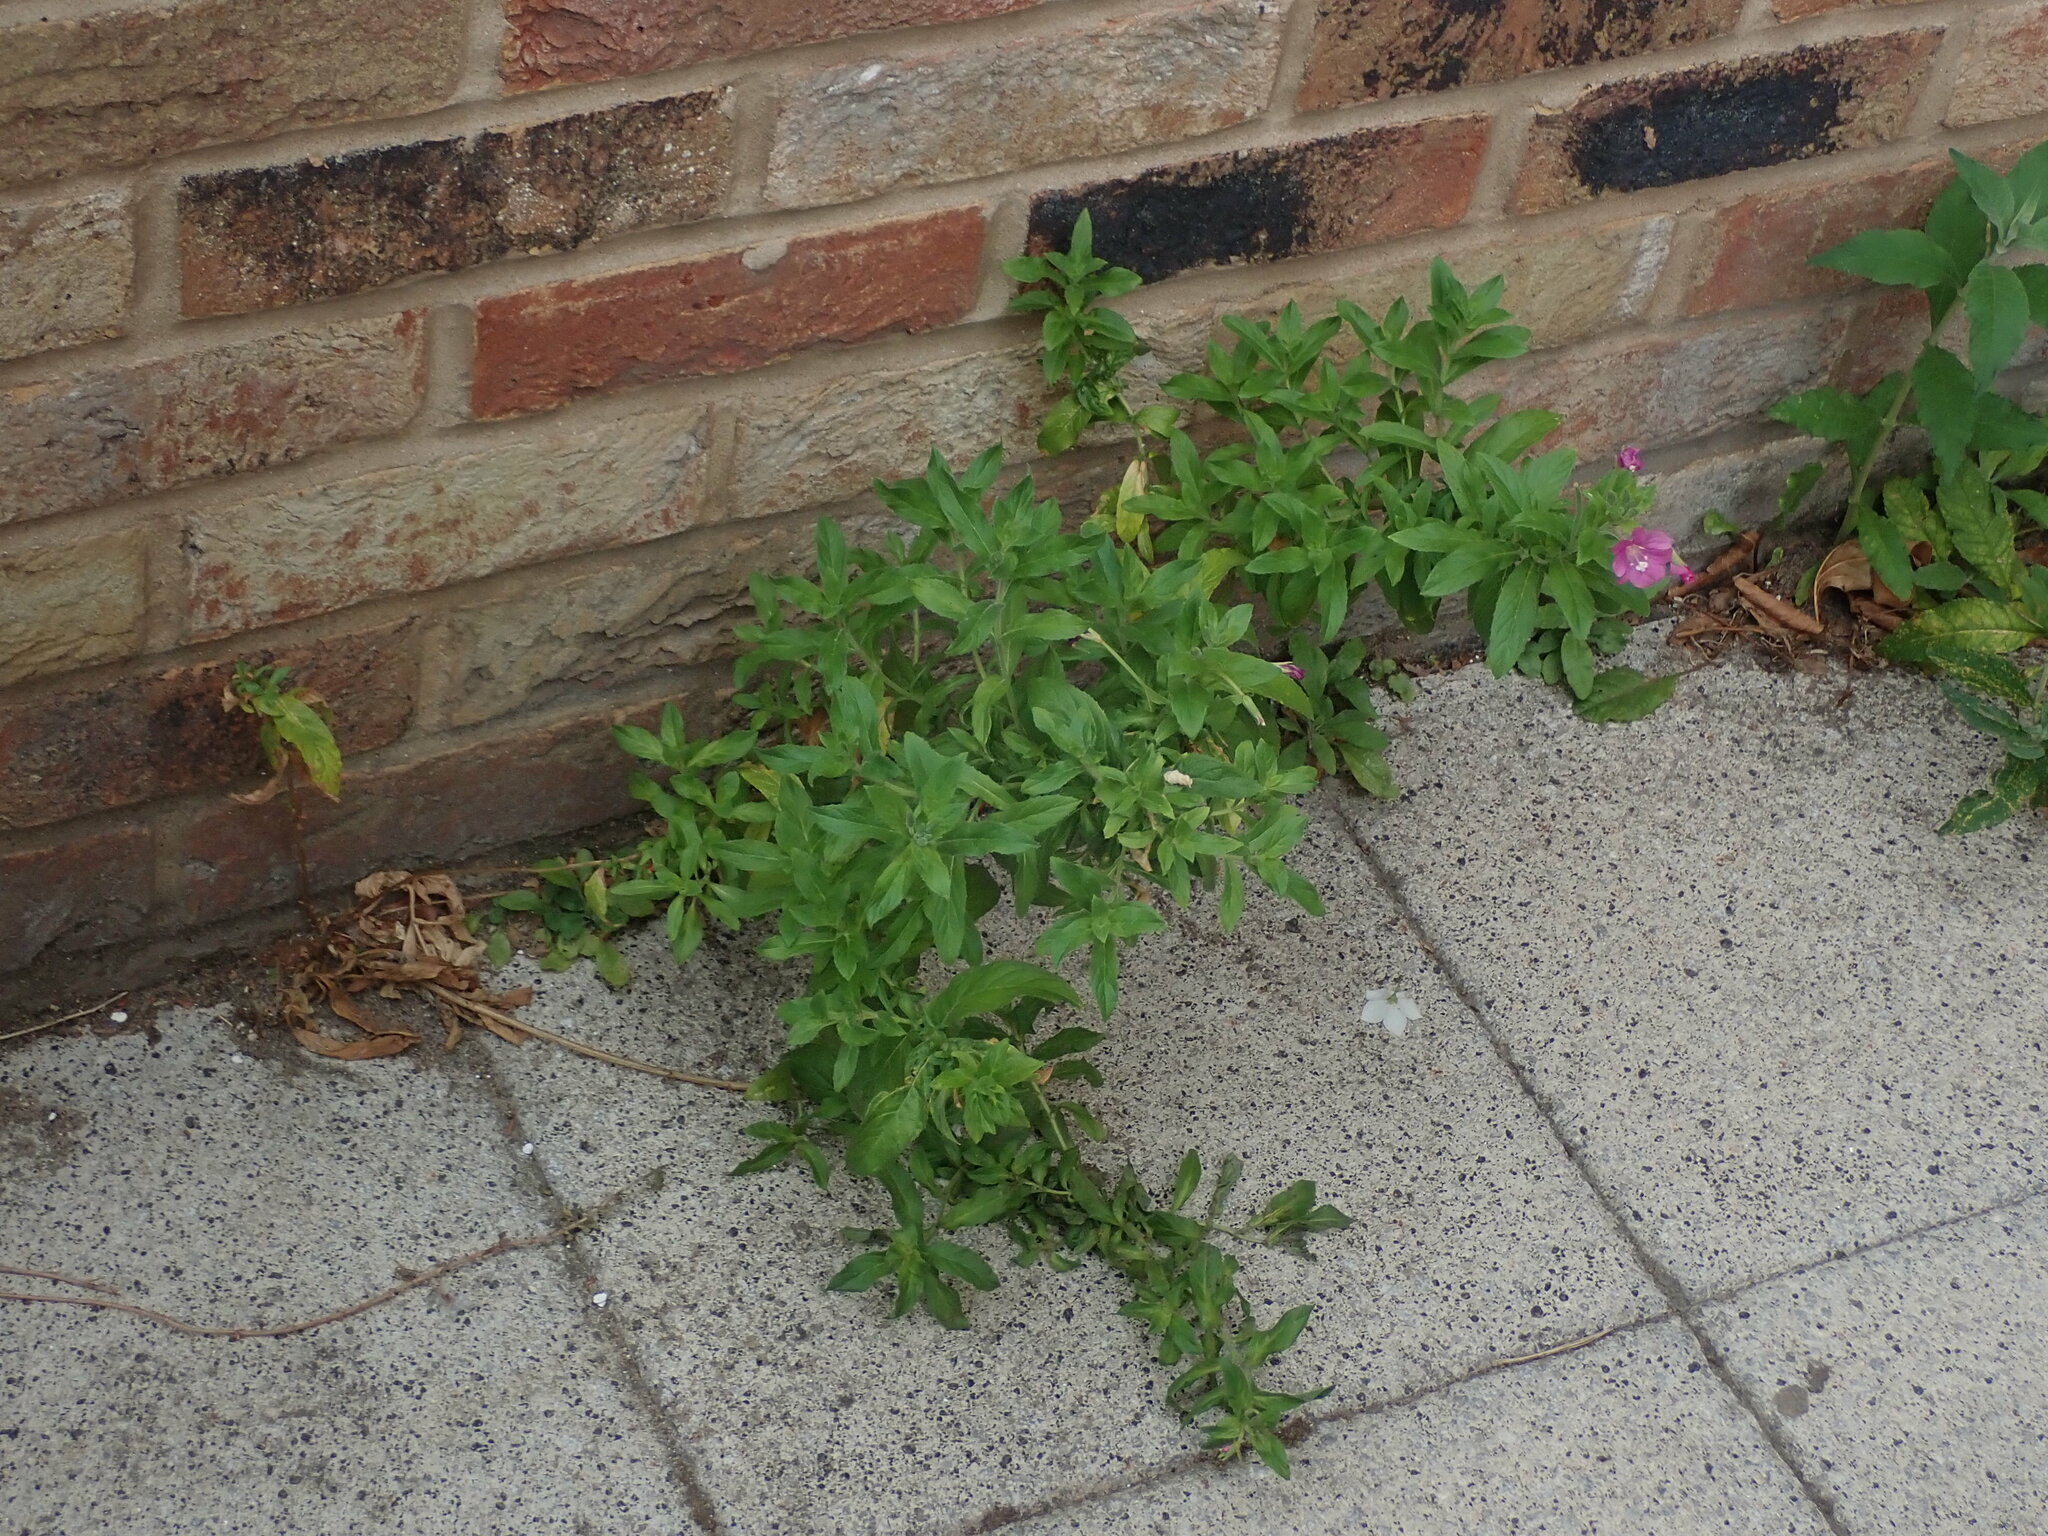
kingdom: Plantae
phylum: Tracheophyta
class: Magnoliopsida
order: Myrtales
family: Onagraceae
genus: Epilobium
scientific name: Epilobium hirsutum
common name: Great willowherb
